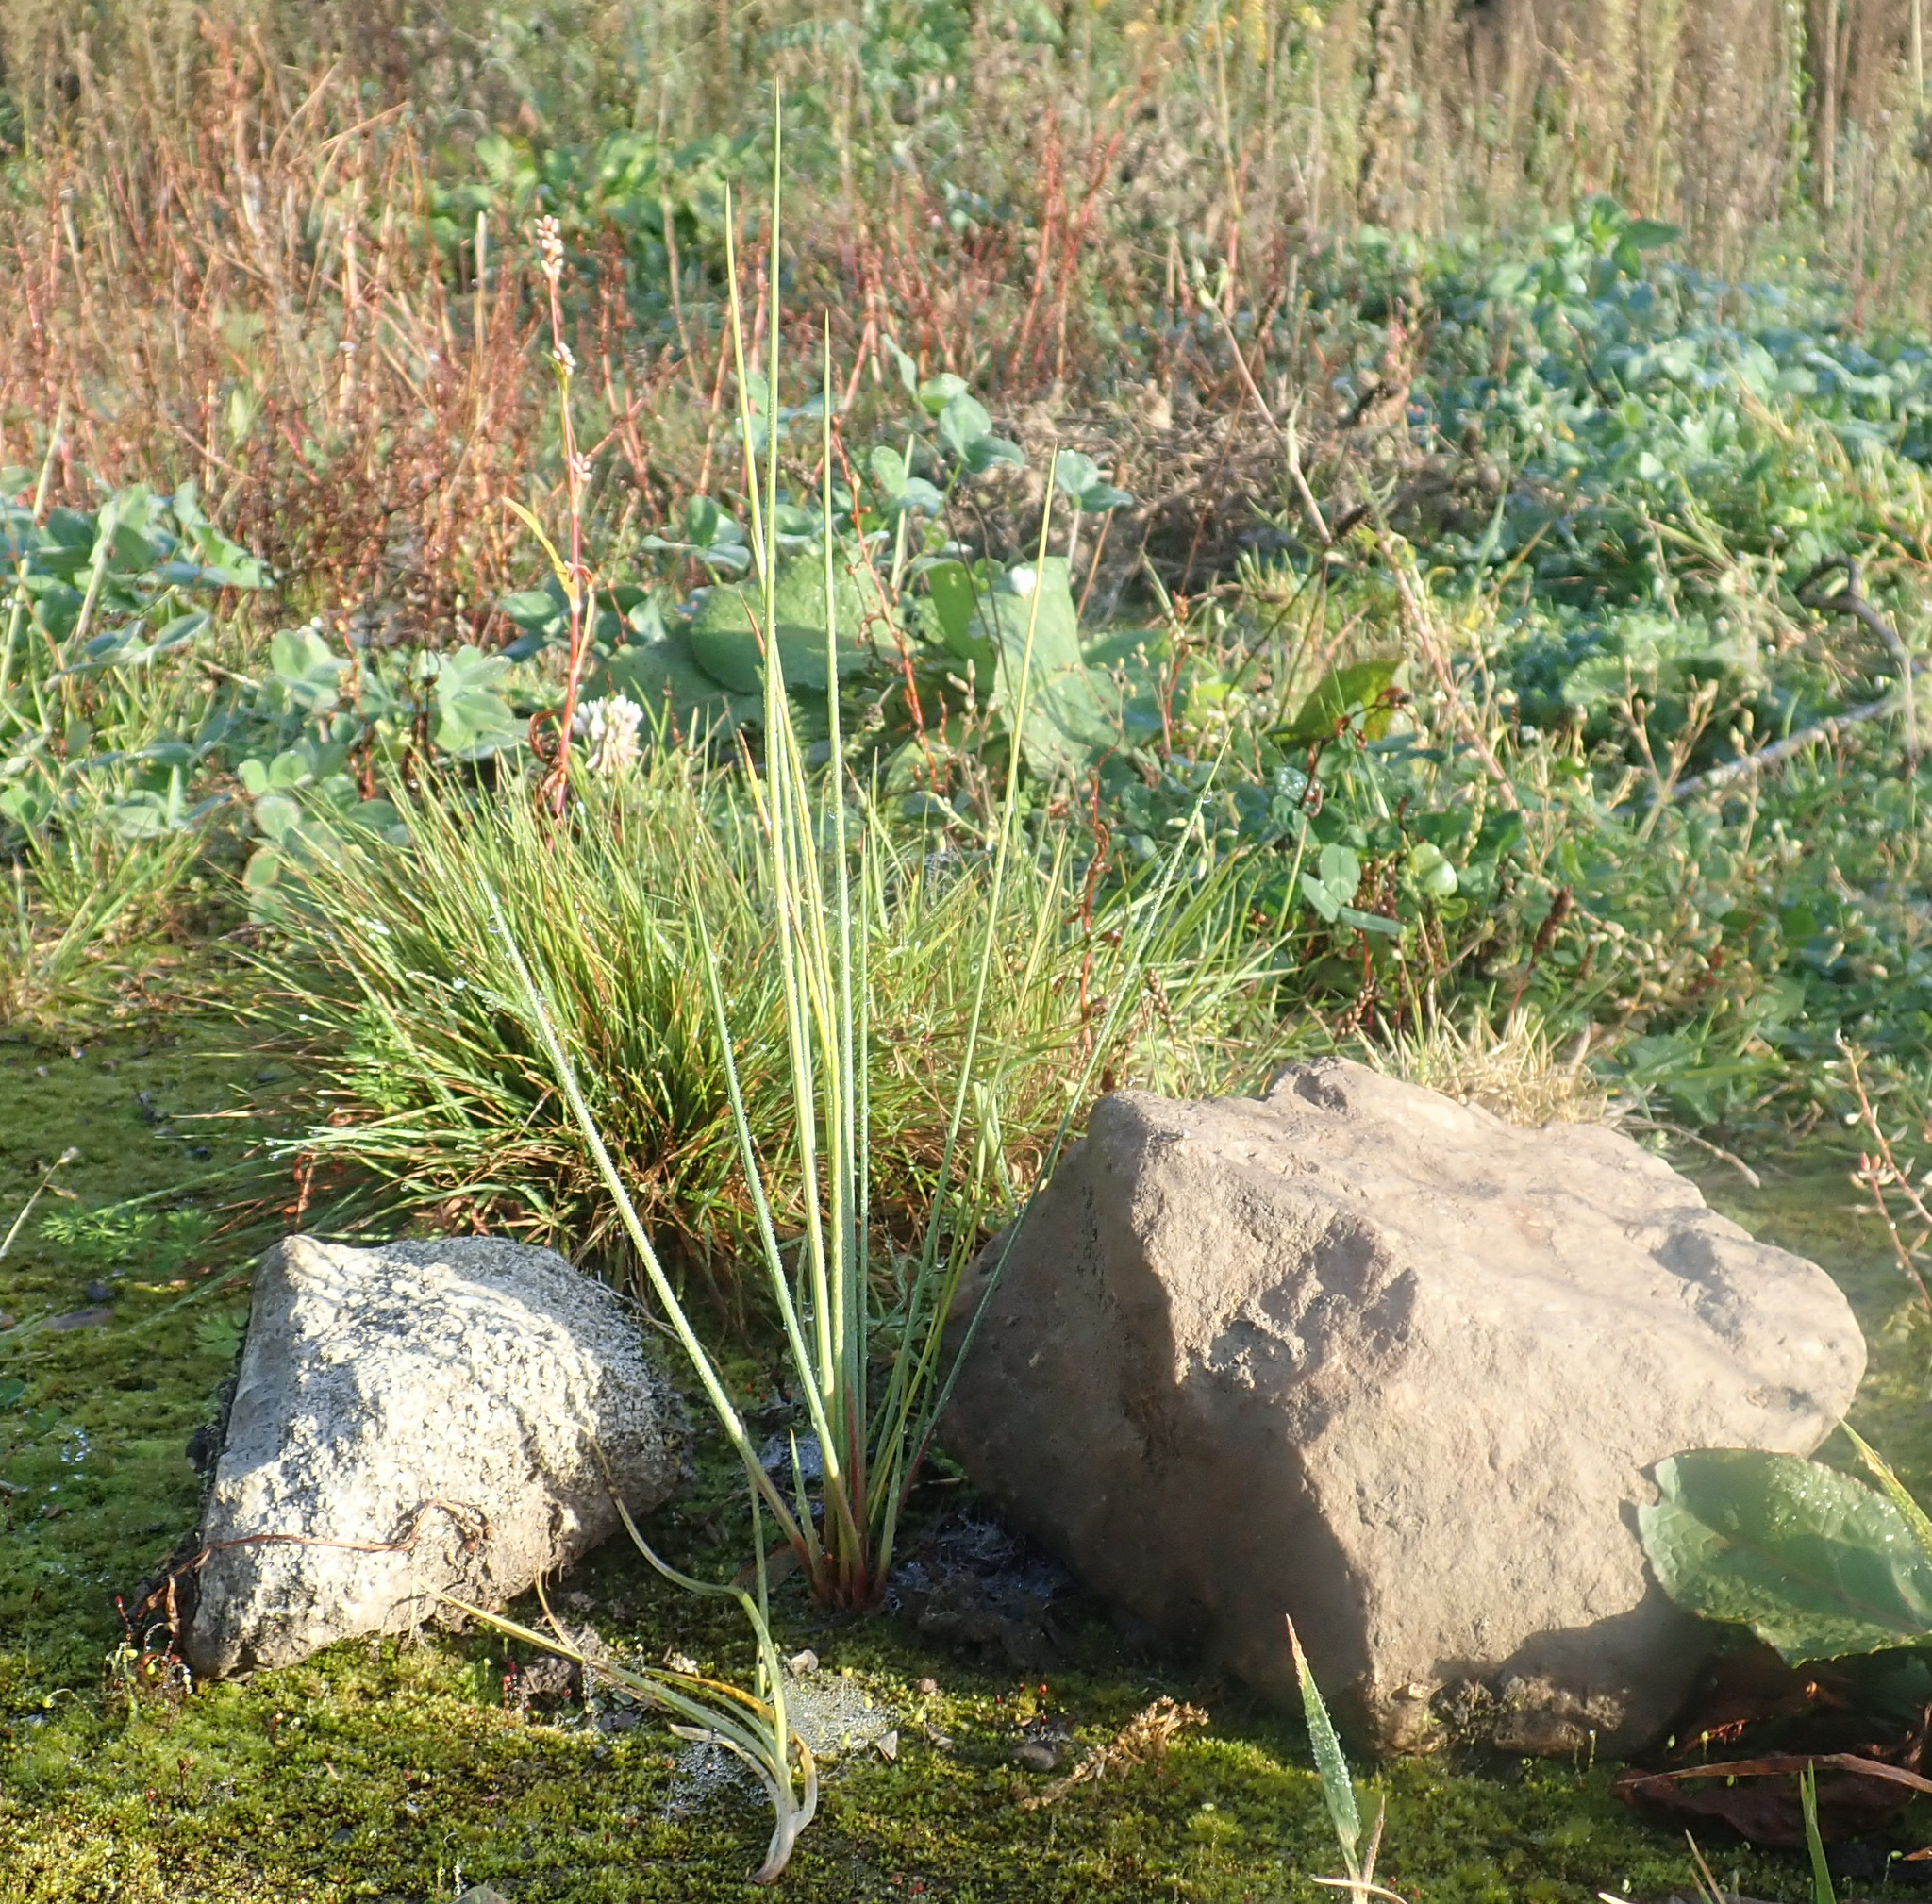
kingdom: Plantae
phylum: Tracheophyta
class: Liliopsida
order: Poales
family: Juncaceae
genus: Juncus
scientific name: Juncus aridicola
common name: Tussock rush
